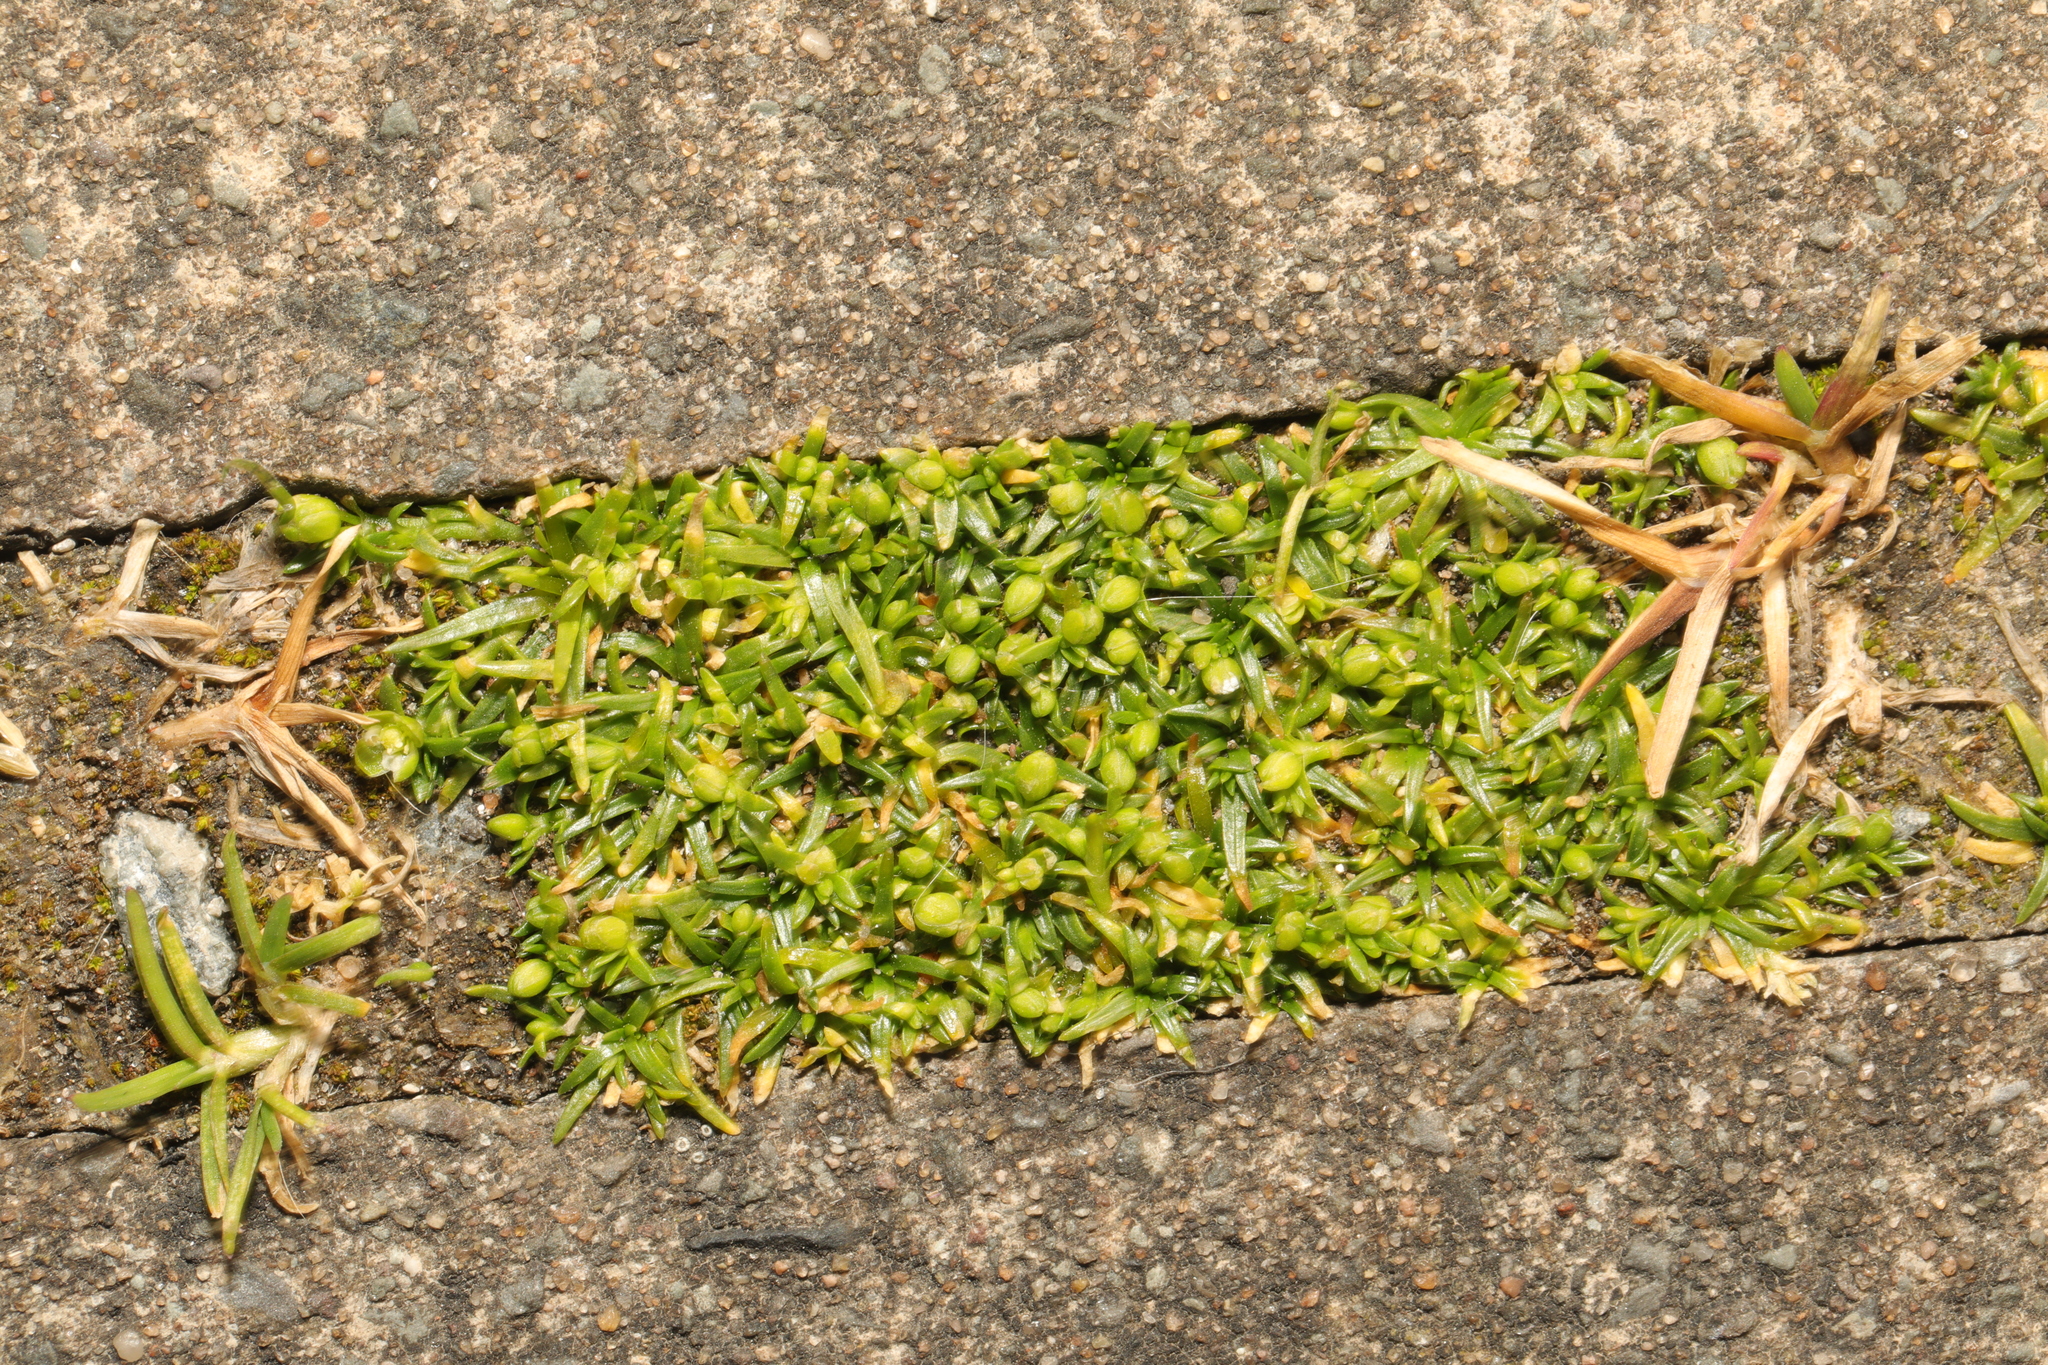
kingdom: Plantae
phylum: Tracheophyta
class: Magnoliopsida
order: Caryophyllales
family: Caryophyllaceae
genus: Sagina
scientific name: Sagina procumbens
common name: Procumbent pearlwort
